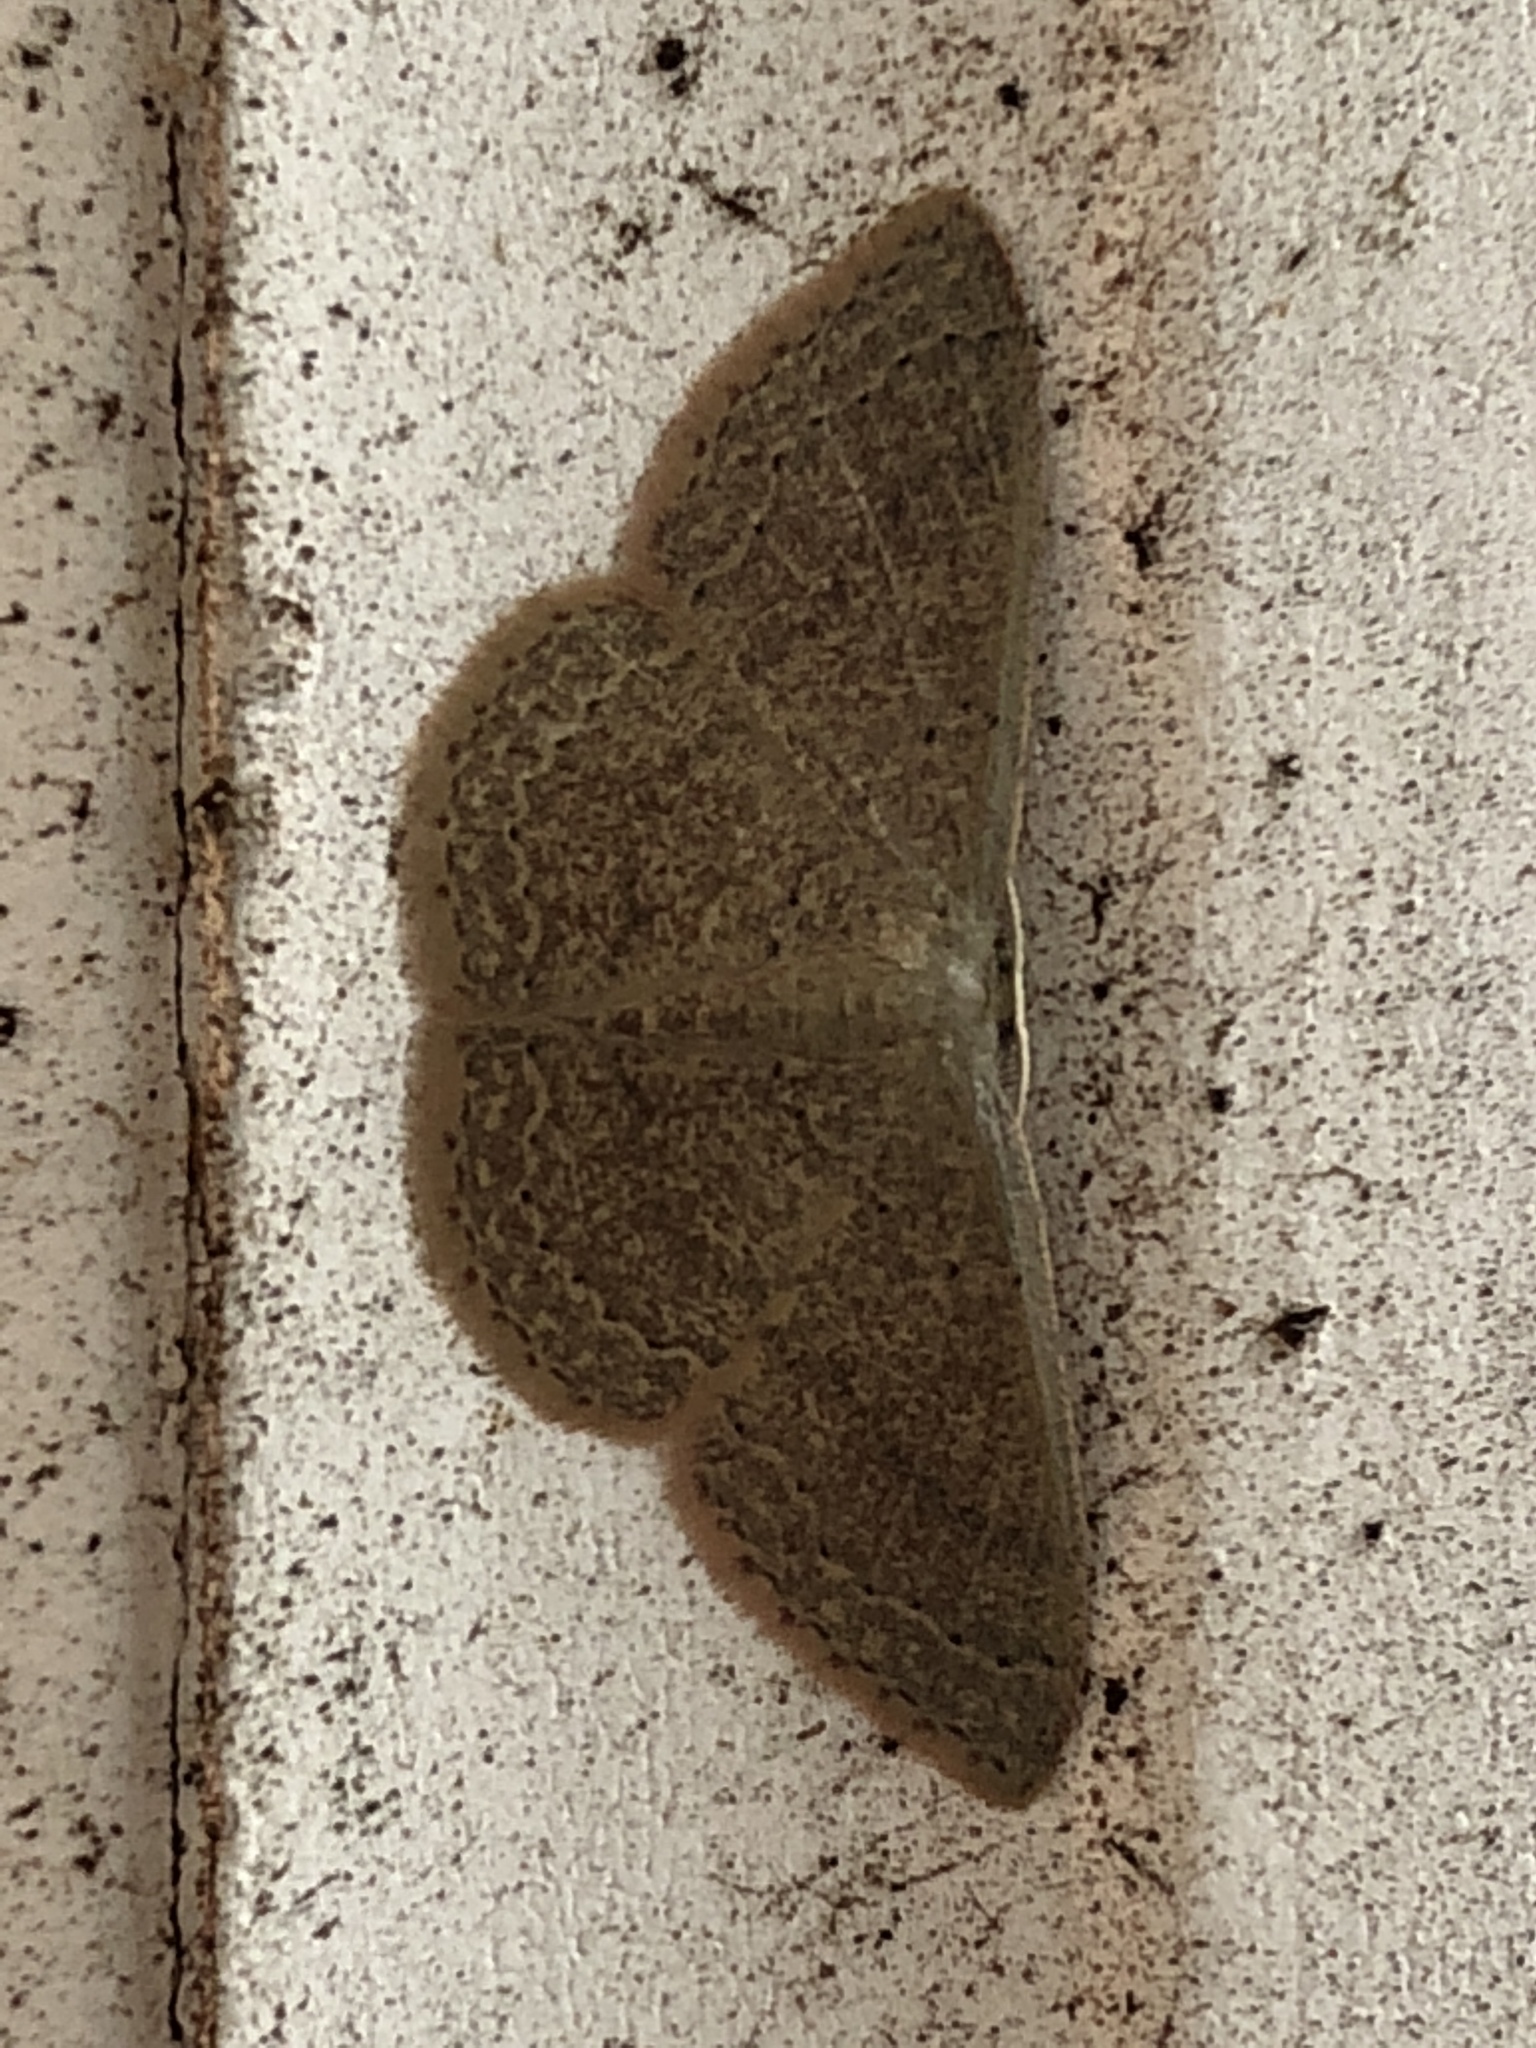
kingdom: Animalia
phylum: Arthropoda
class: Insecta
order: Lepidoptera
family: Geometridae
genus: Pleuroprucha
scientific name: Pleuroprucha insulsaria
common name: Common tan wave
